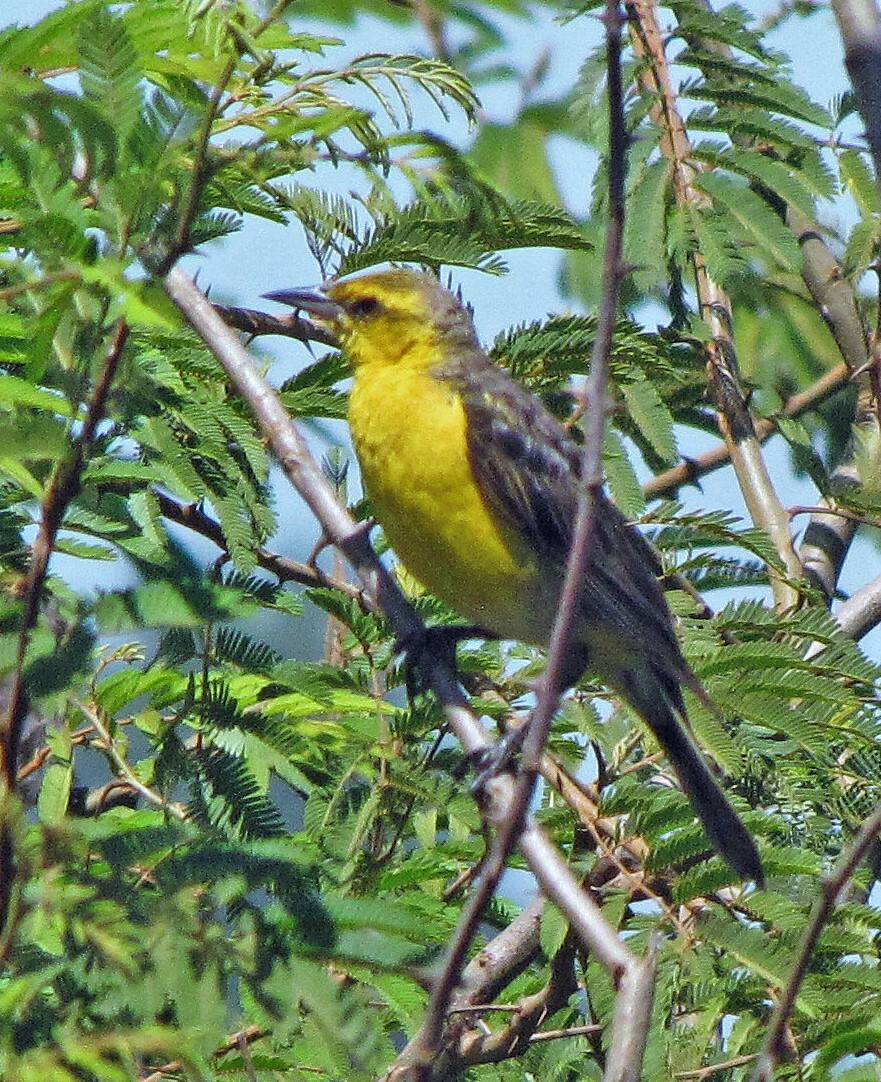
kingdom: Animalia
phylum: Chordata
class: Aves
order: Passeriformes
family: Icteridae
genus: Xanthopsar
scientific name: Xanthopsar flavus
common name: Saffron-cowled blackbird
